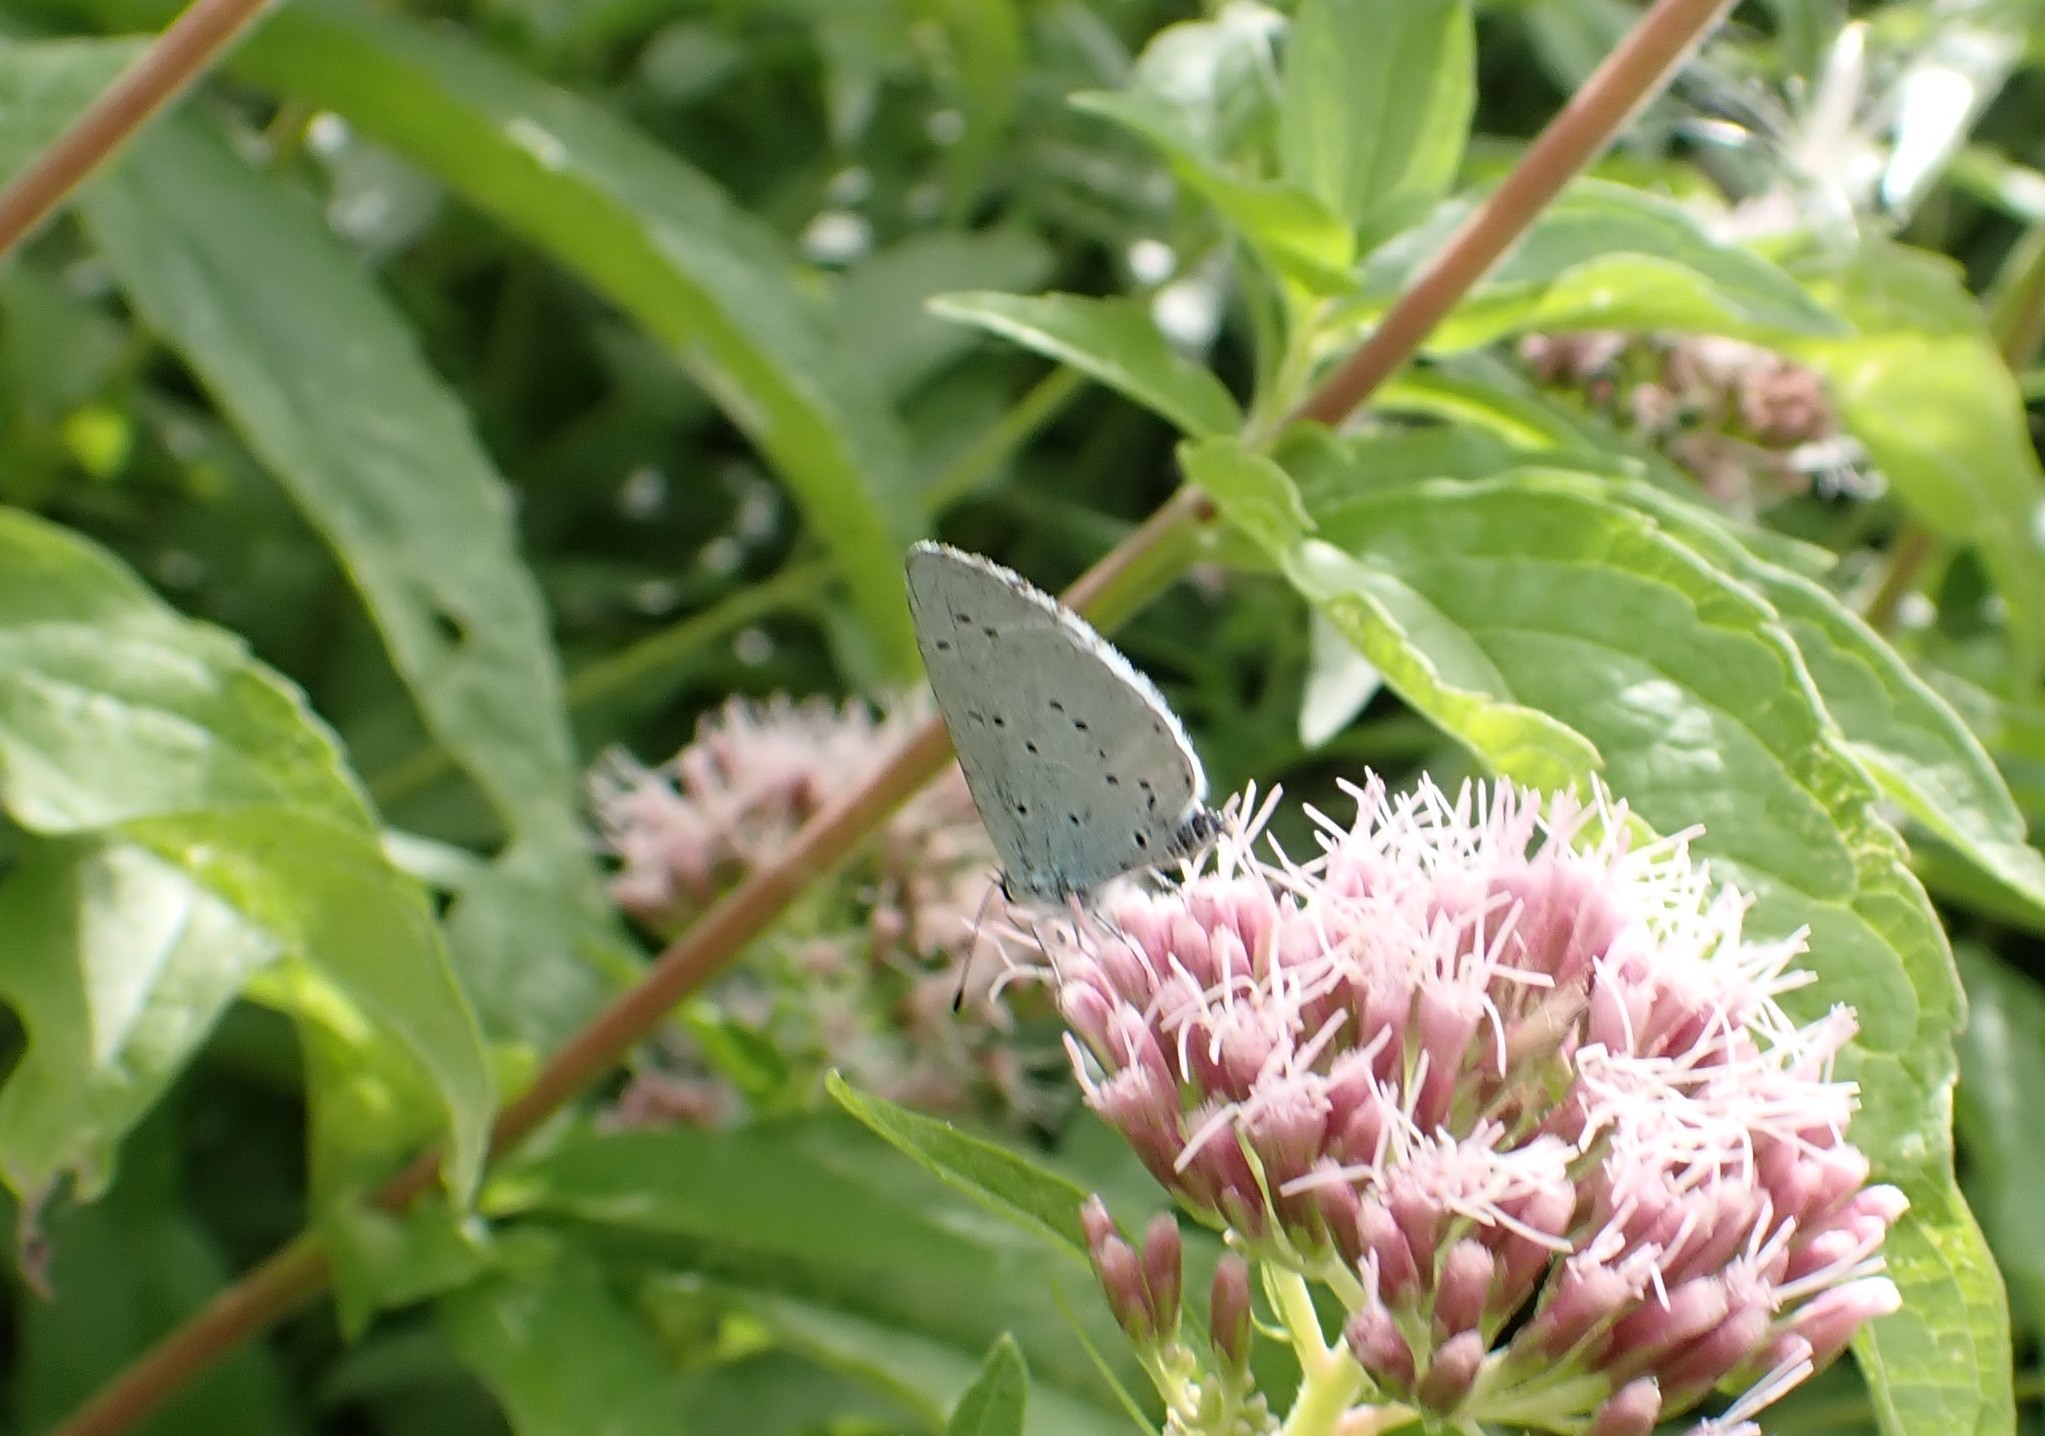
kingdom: Animalia
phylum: Arthropoda
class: Insecta
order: Lepidoptera
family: Lycaenidae
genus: Celastrina
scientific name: Celastrina argiolus
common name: Holly blue
